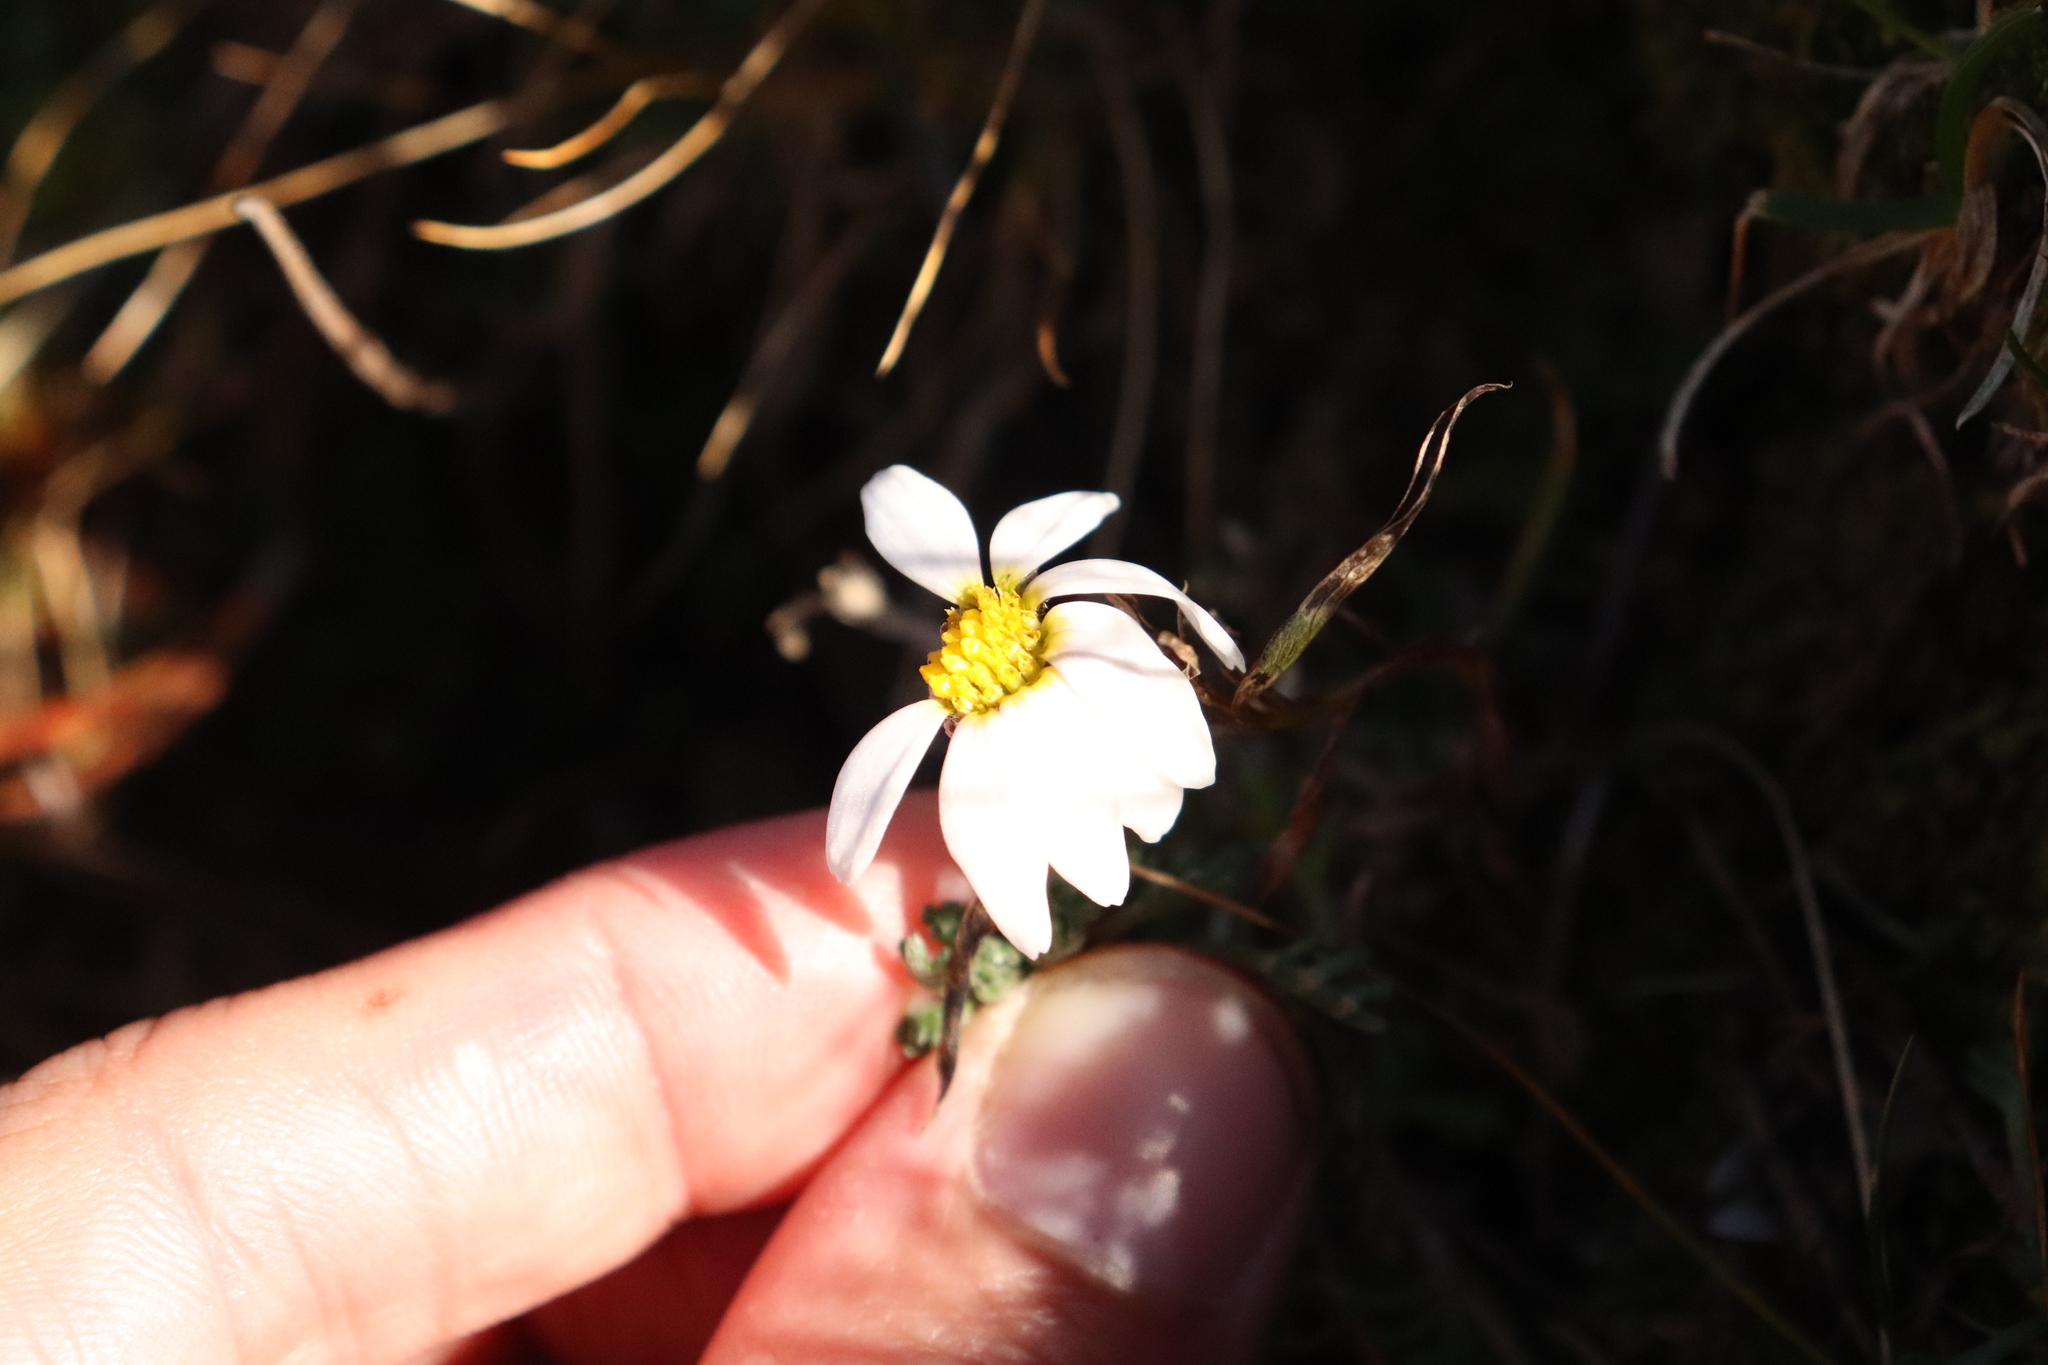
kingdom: Plantae
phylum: Tracheophyta
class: Magnoliopsida
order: Asterales
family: Asteraceae
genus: Leucanthemopsis
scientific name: Leucanthemopsis alpina
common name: Alpine moon daisy
